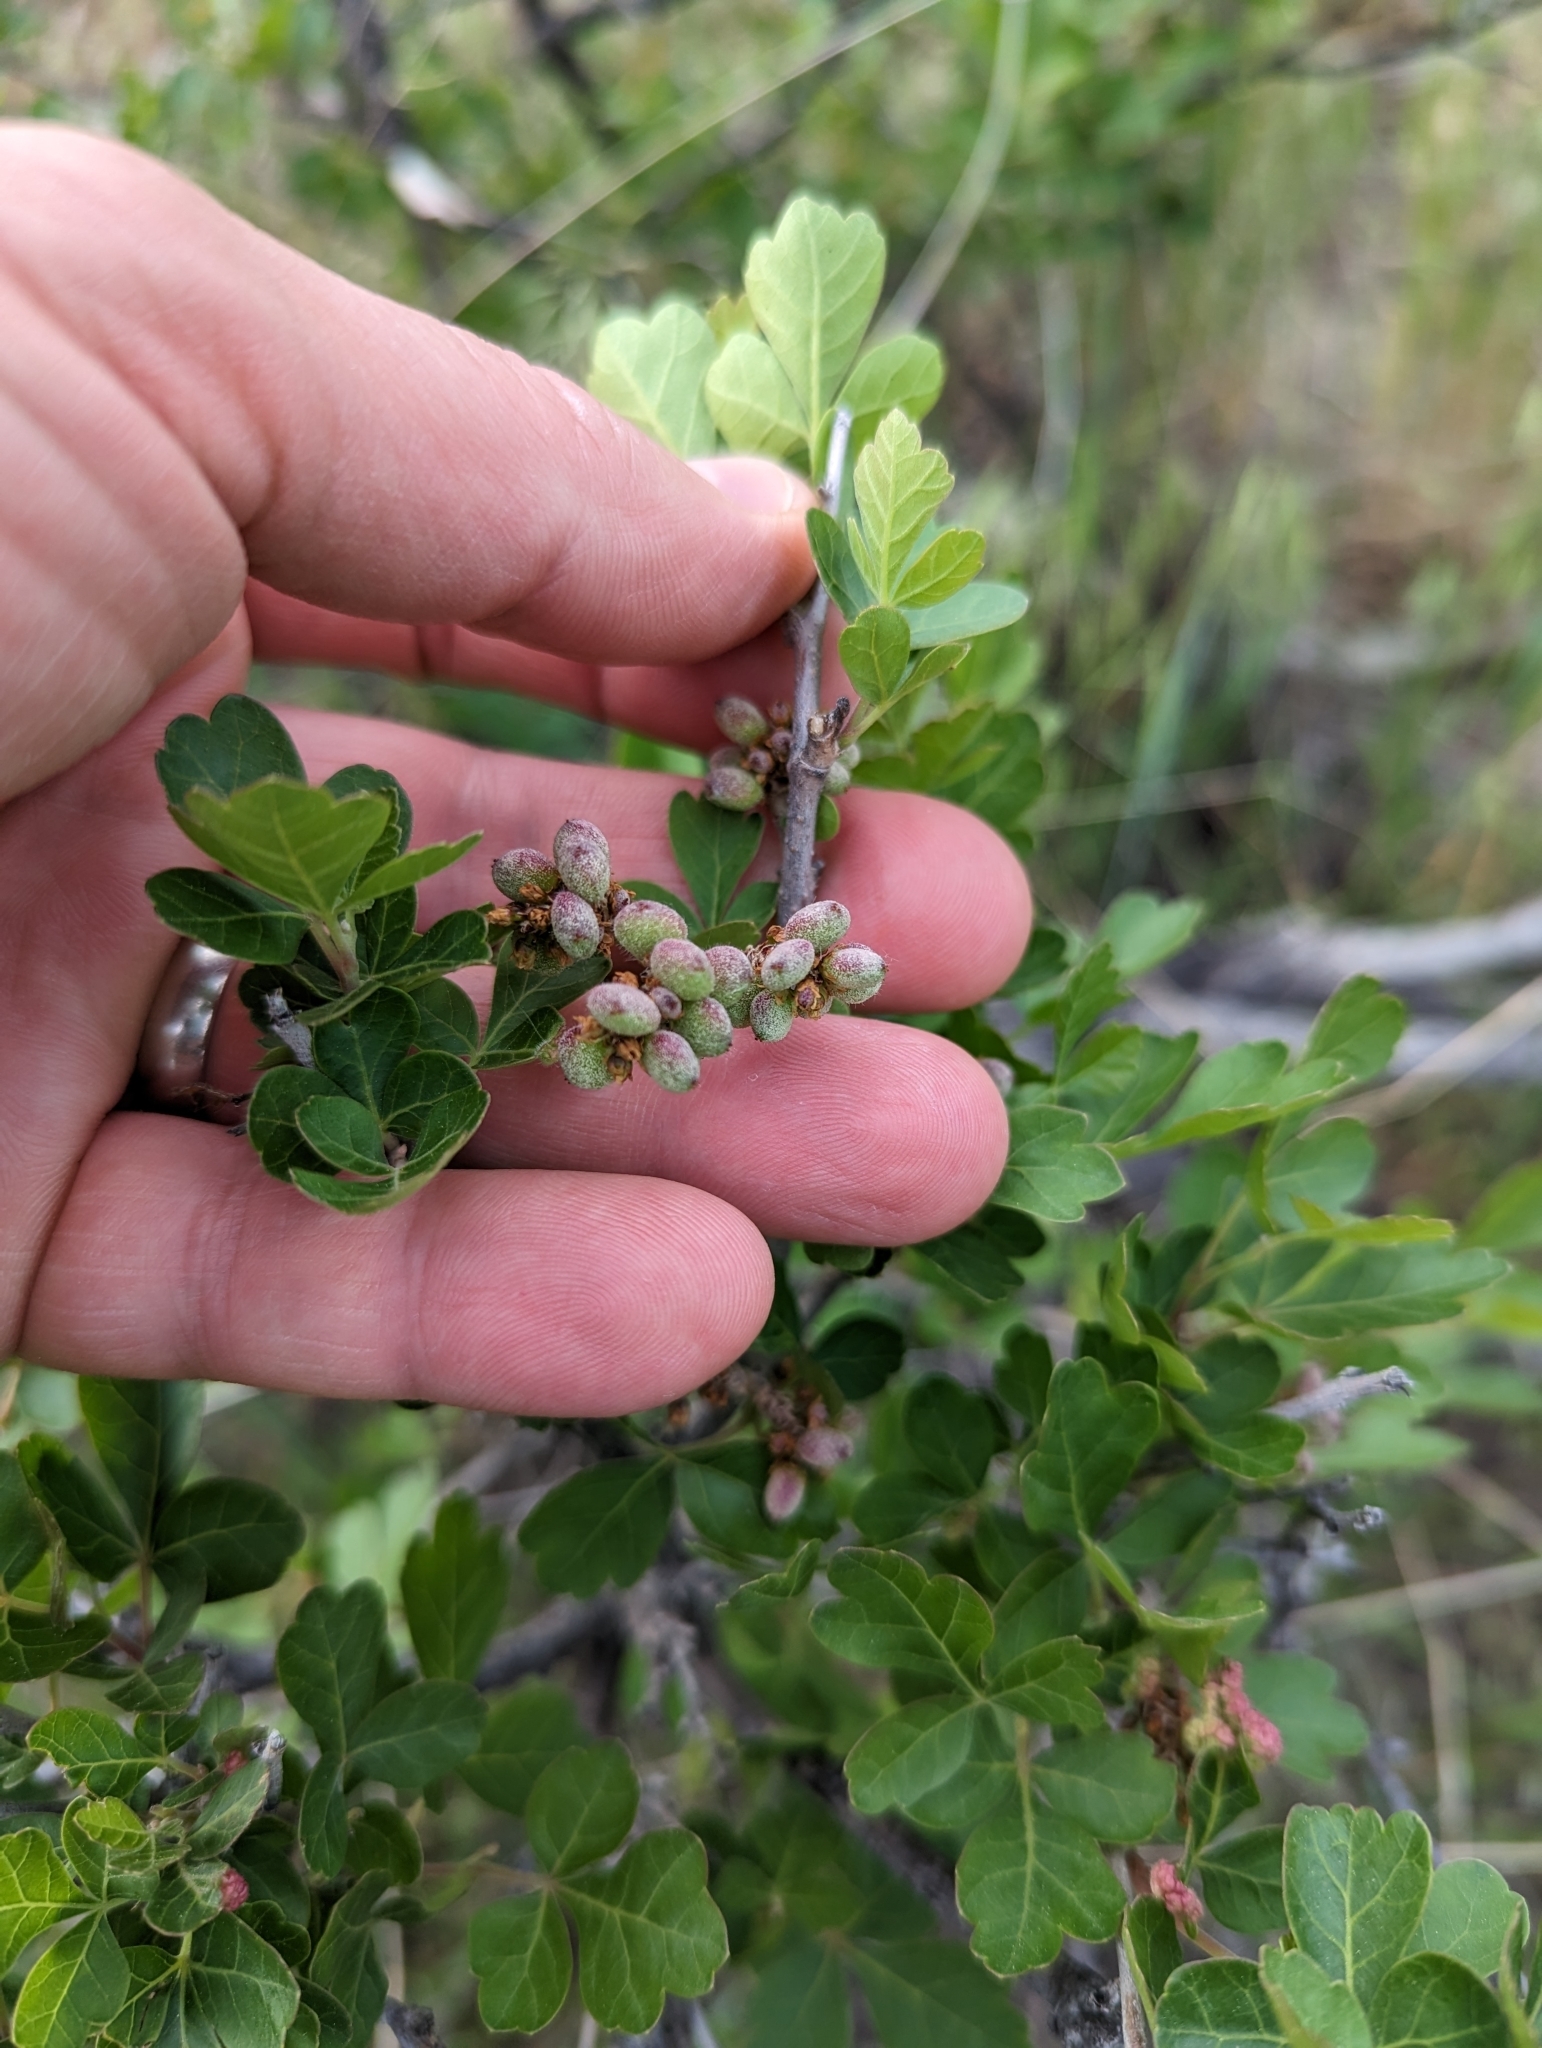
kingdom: Plantae
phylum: Tracheophyta
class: Magnoliopsida
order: Sapindales
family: Anacardiaceae
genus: Rhus
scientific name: Rhus aromatica
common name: Aromatic sumac
